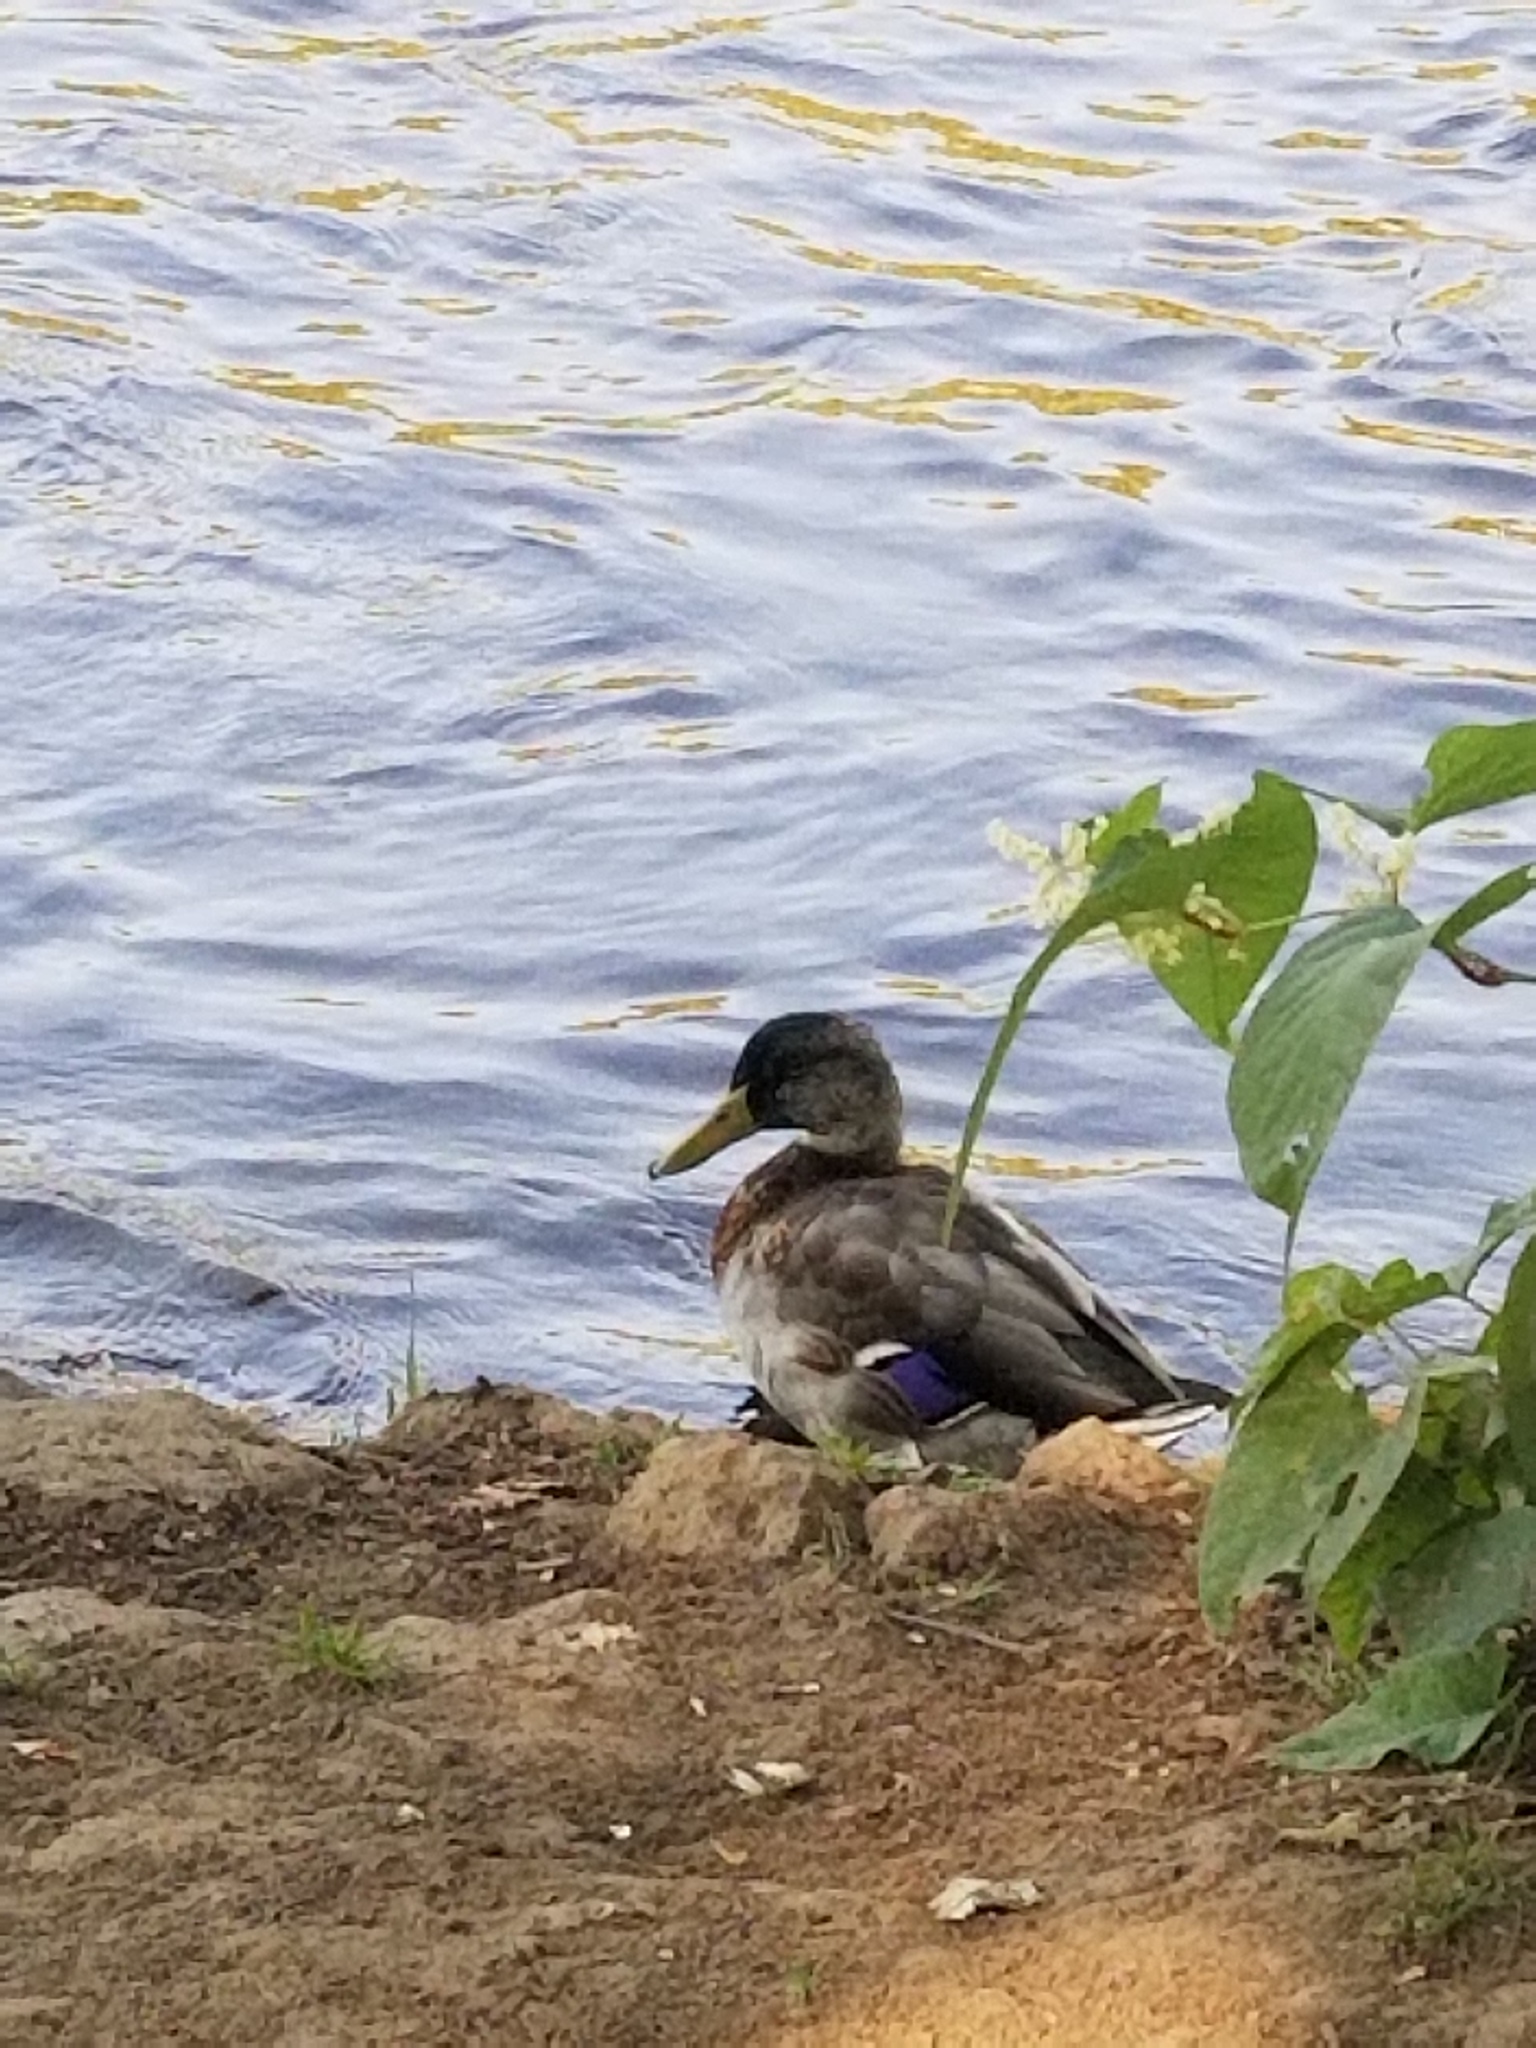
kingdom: Animalia
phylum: Chordata
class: Aves
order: Anseriformes
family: Anatidae
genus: Anas
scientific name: Anas platyrhynchos
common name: Mallard
